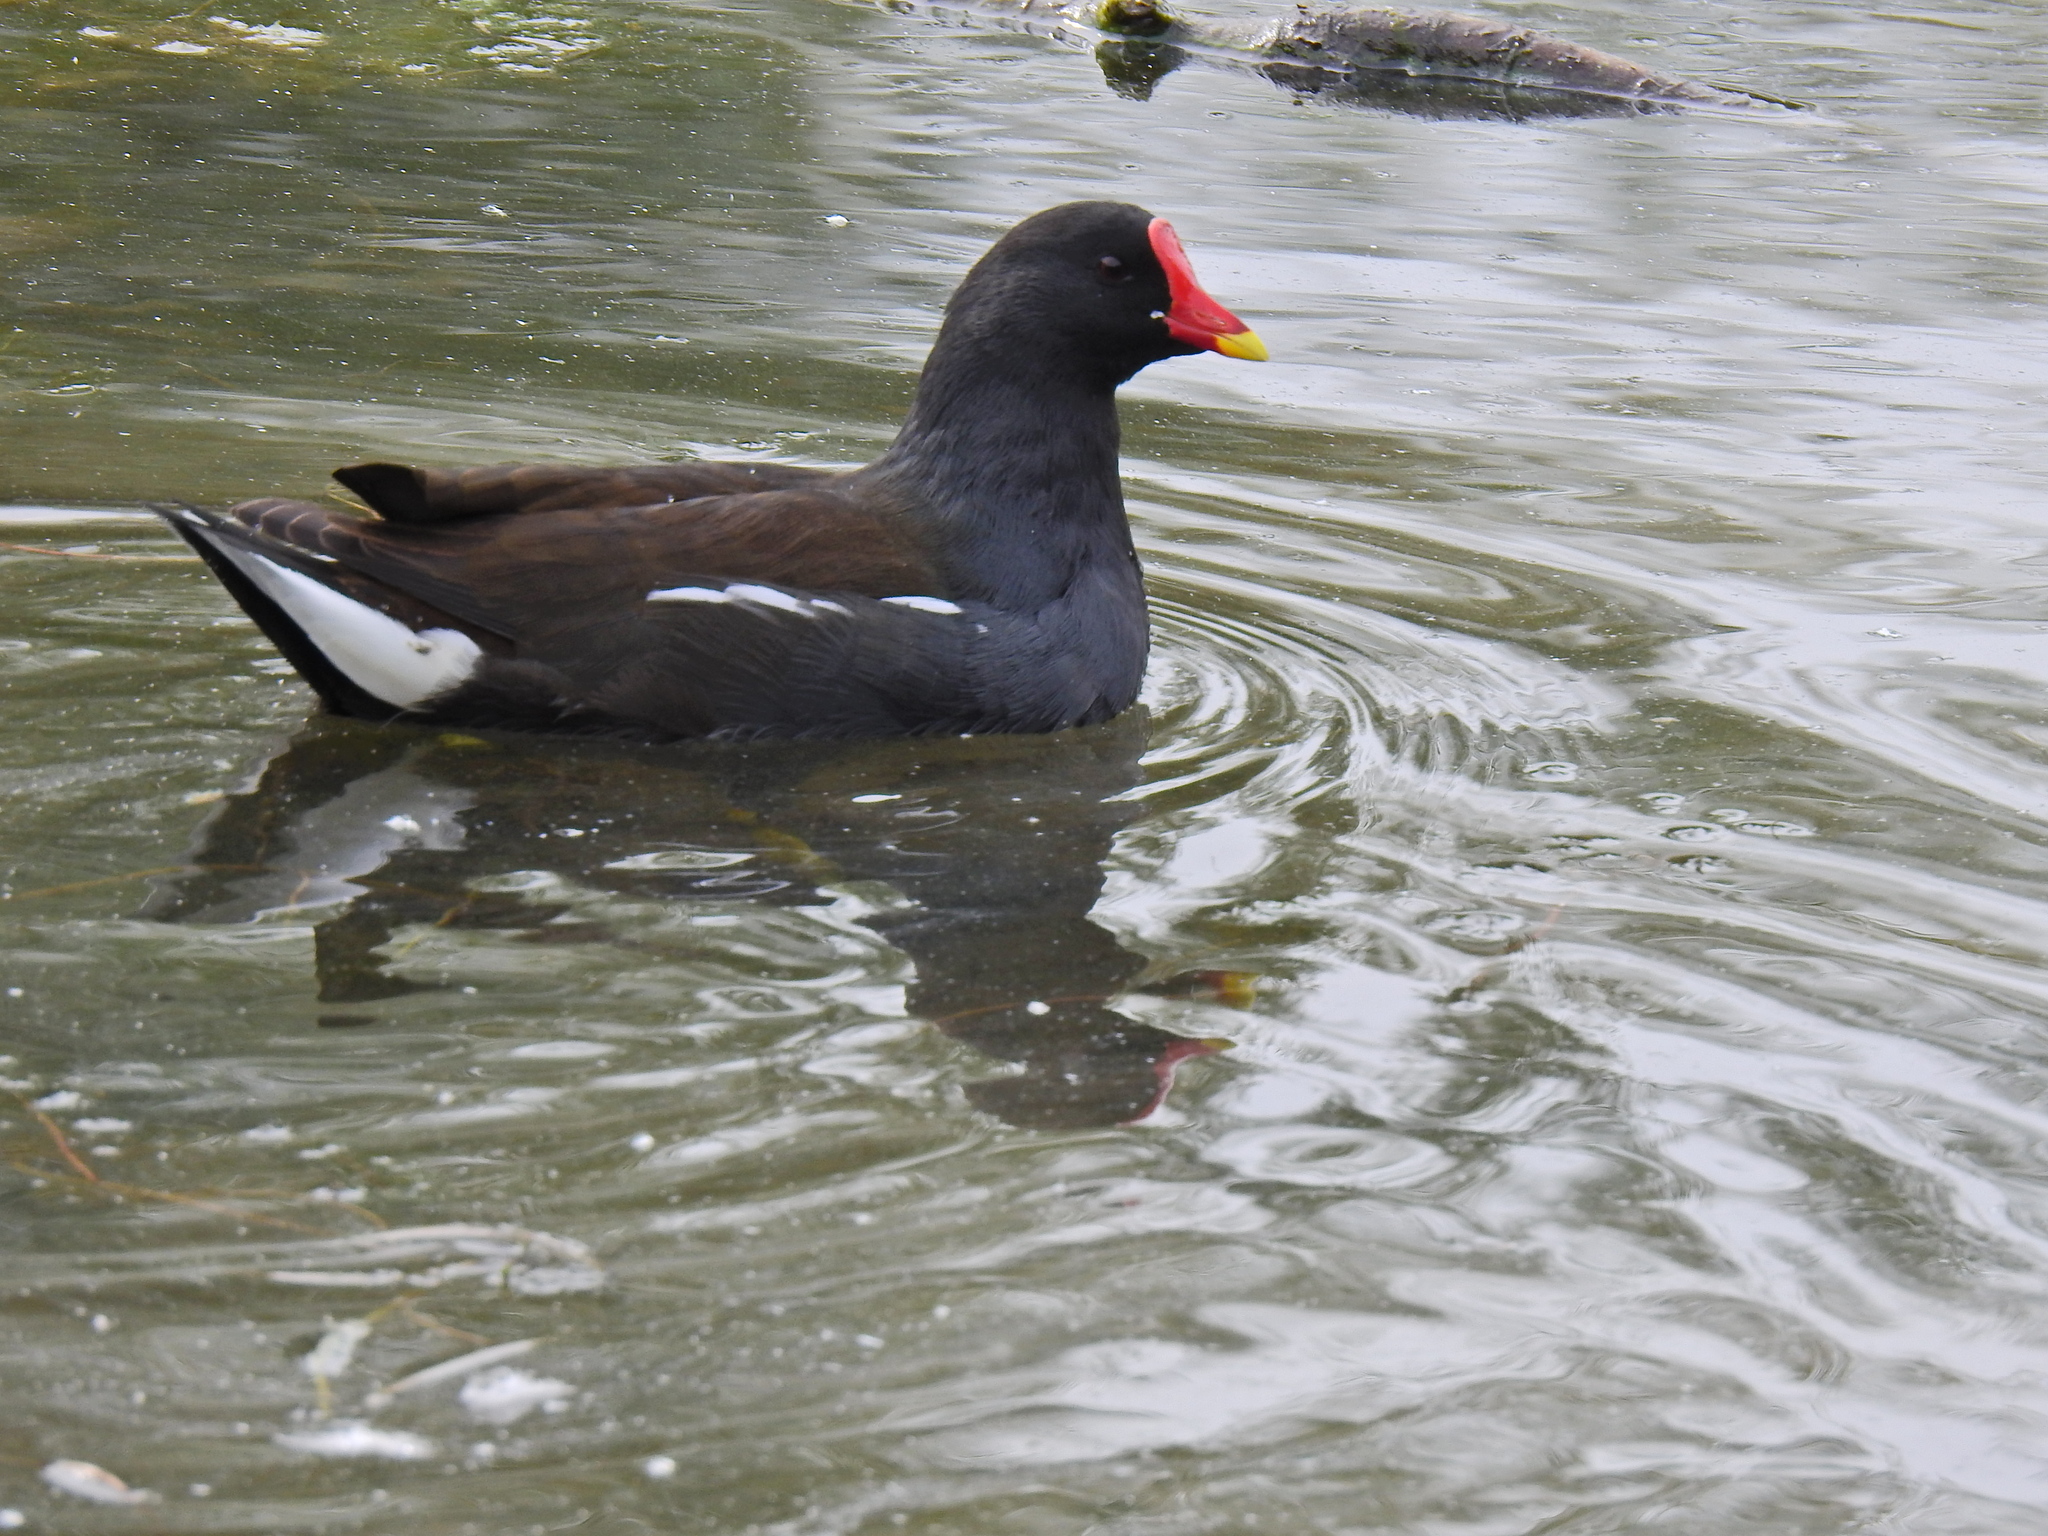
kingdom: Animalia
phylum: Chordata
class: Aves
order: Gruiformes
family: Rallidae
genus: Gallinula
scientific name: Gallinula chloropus
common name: Common moorhen
